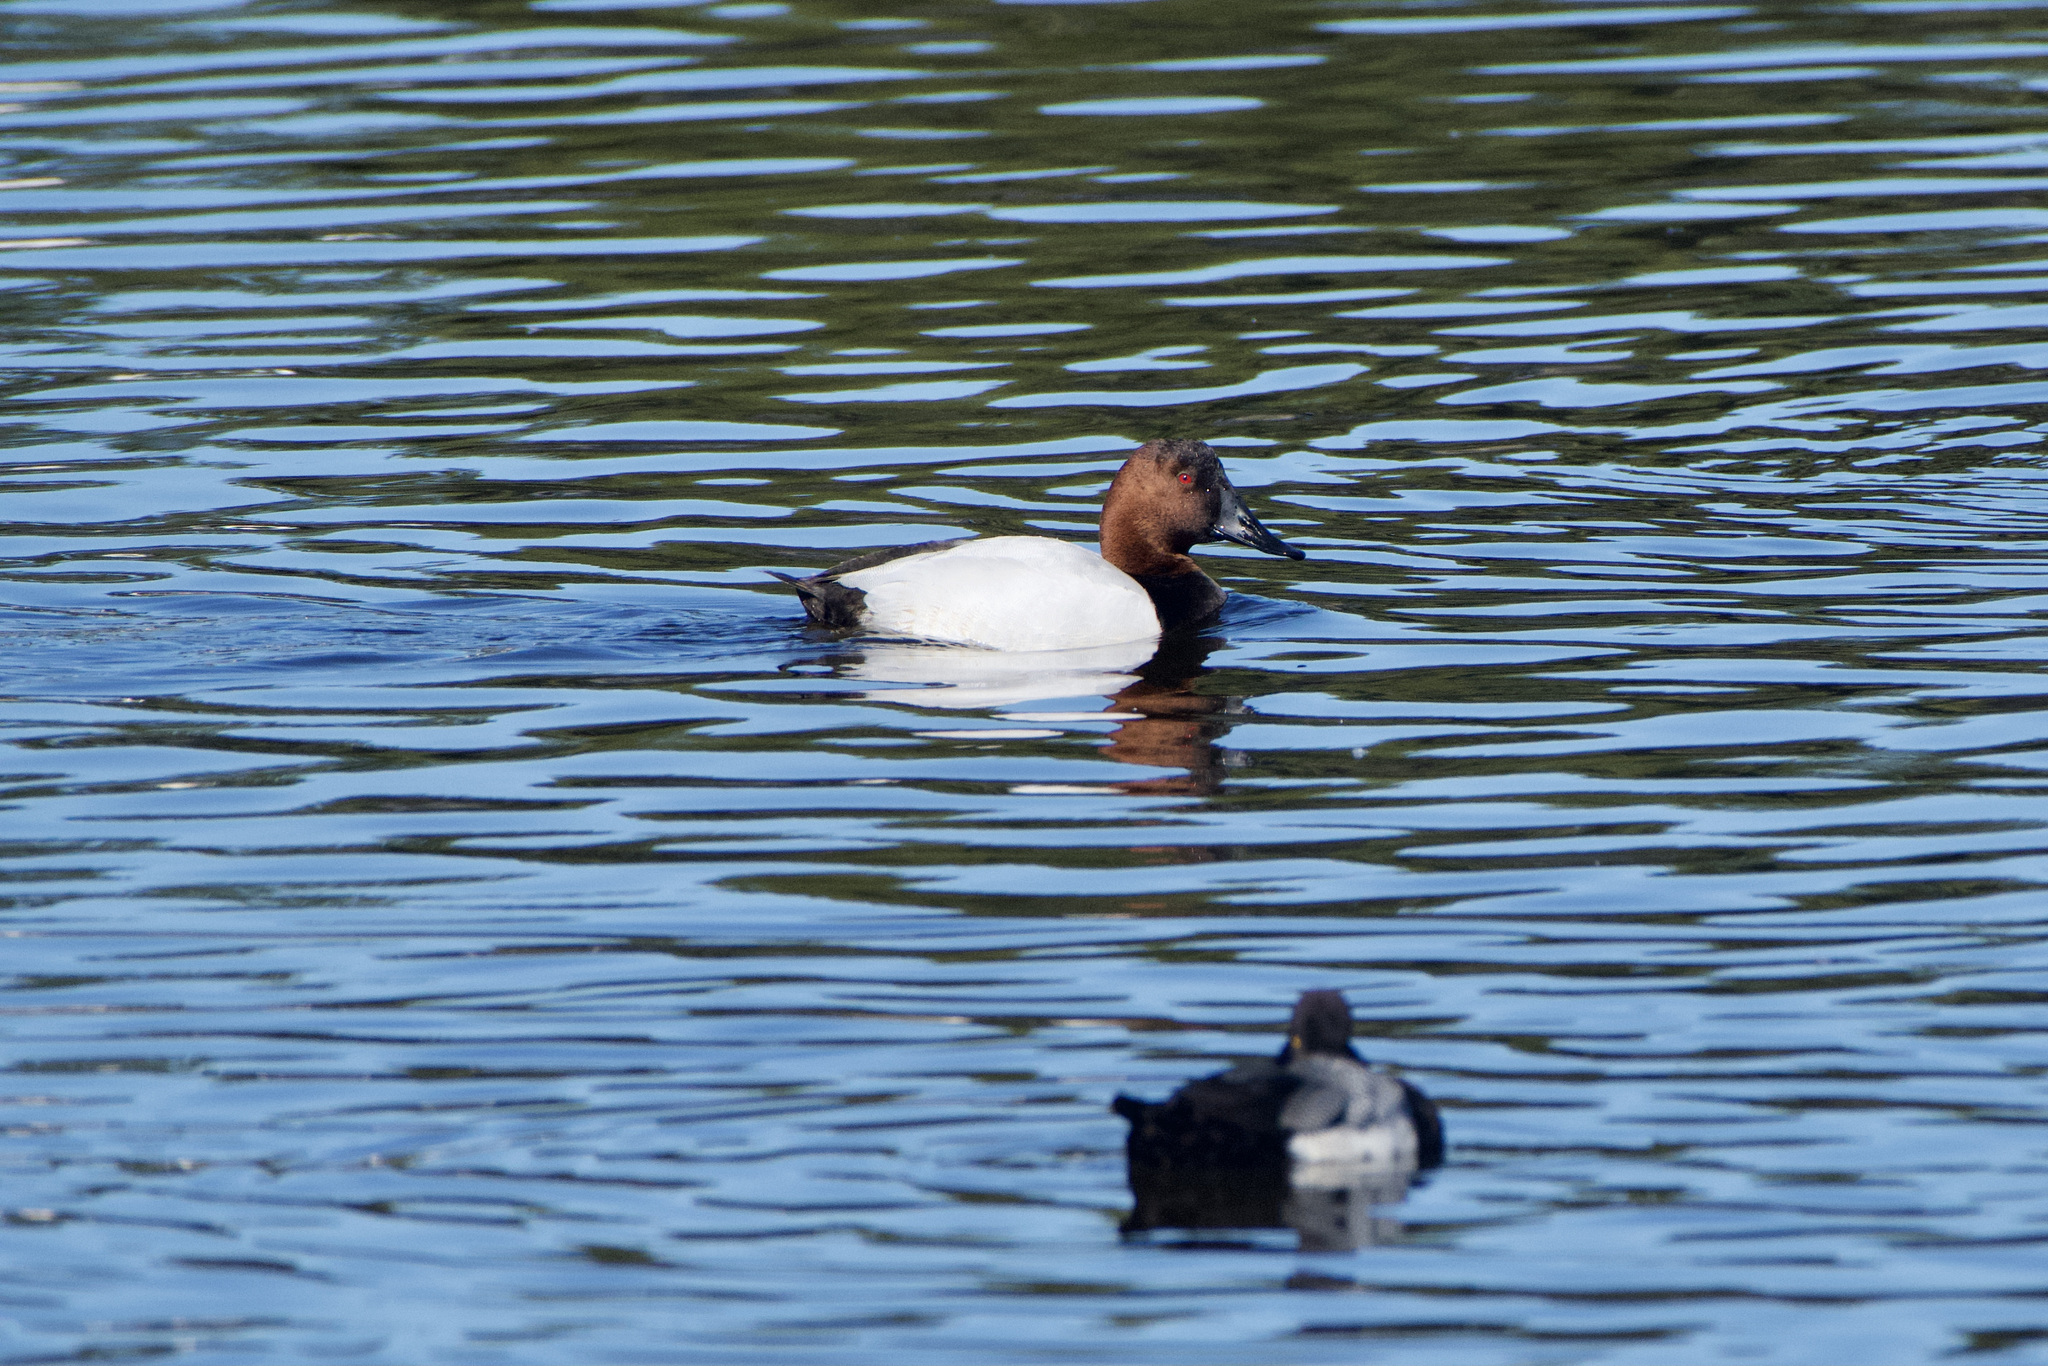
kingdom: Animalia
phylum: Chordata
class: Aves
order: Anseriformes
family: Anatidae
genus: Aythya
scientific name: Aythya valisineria
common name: Canvasback
